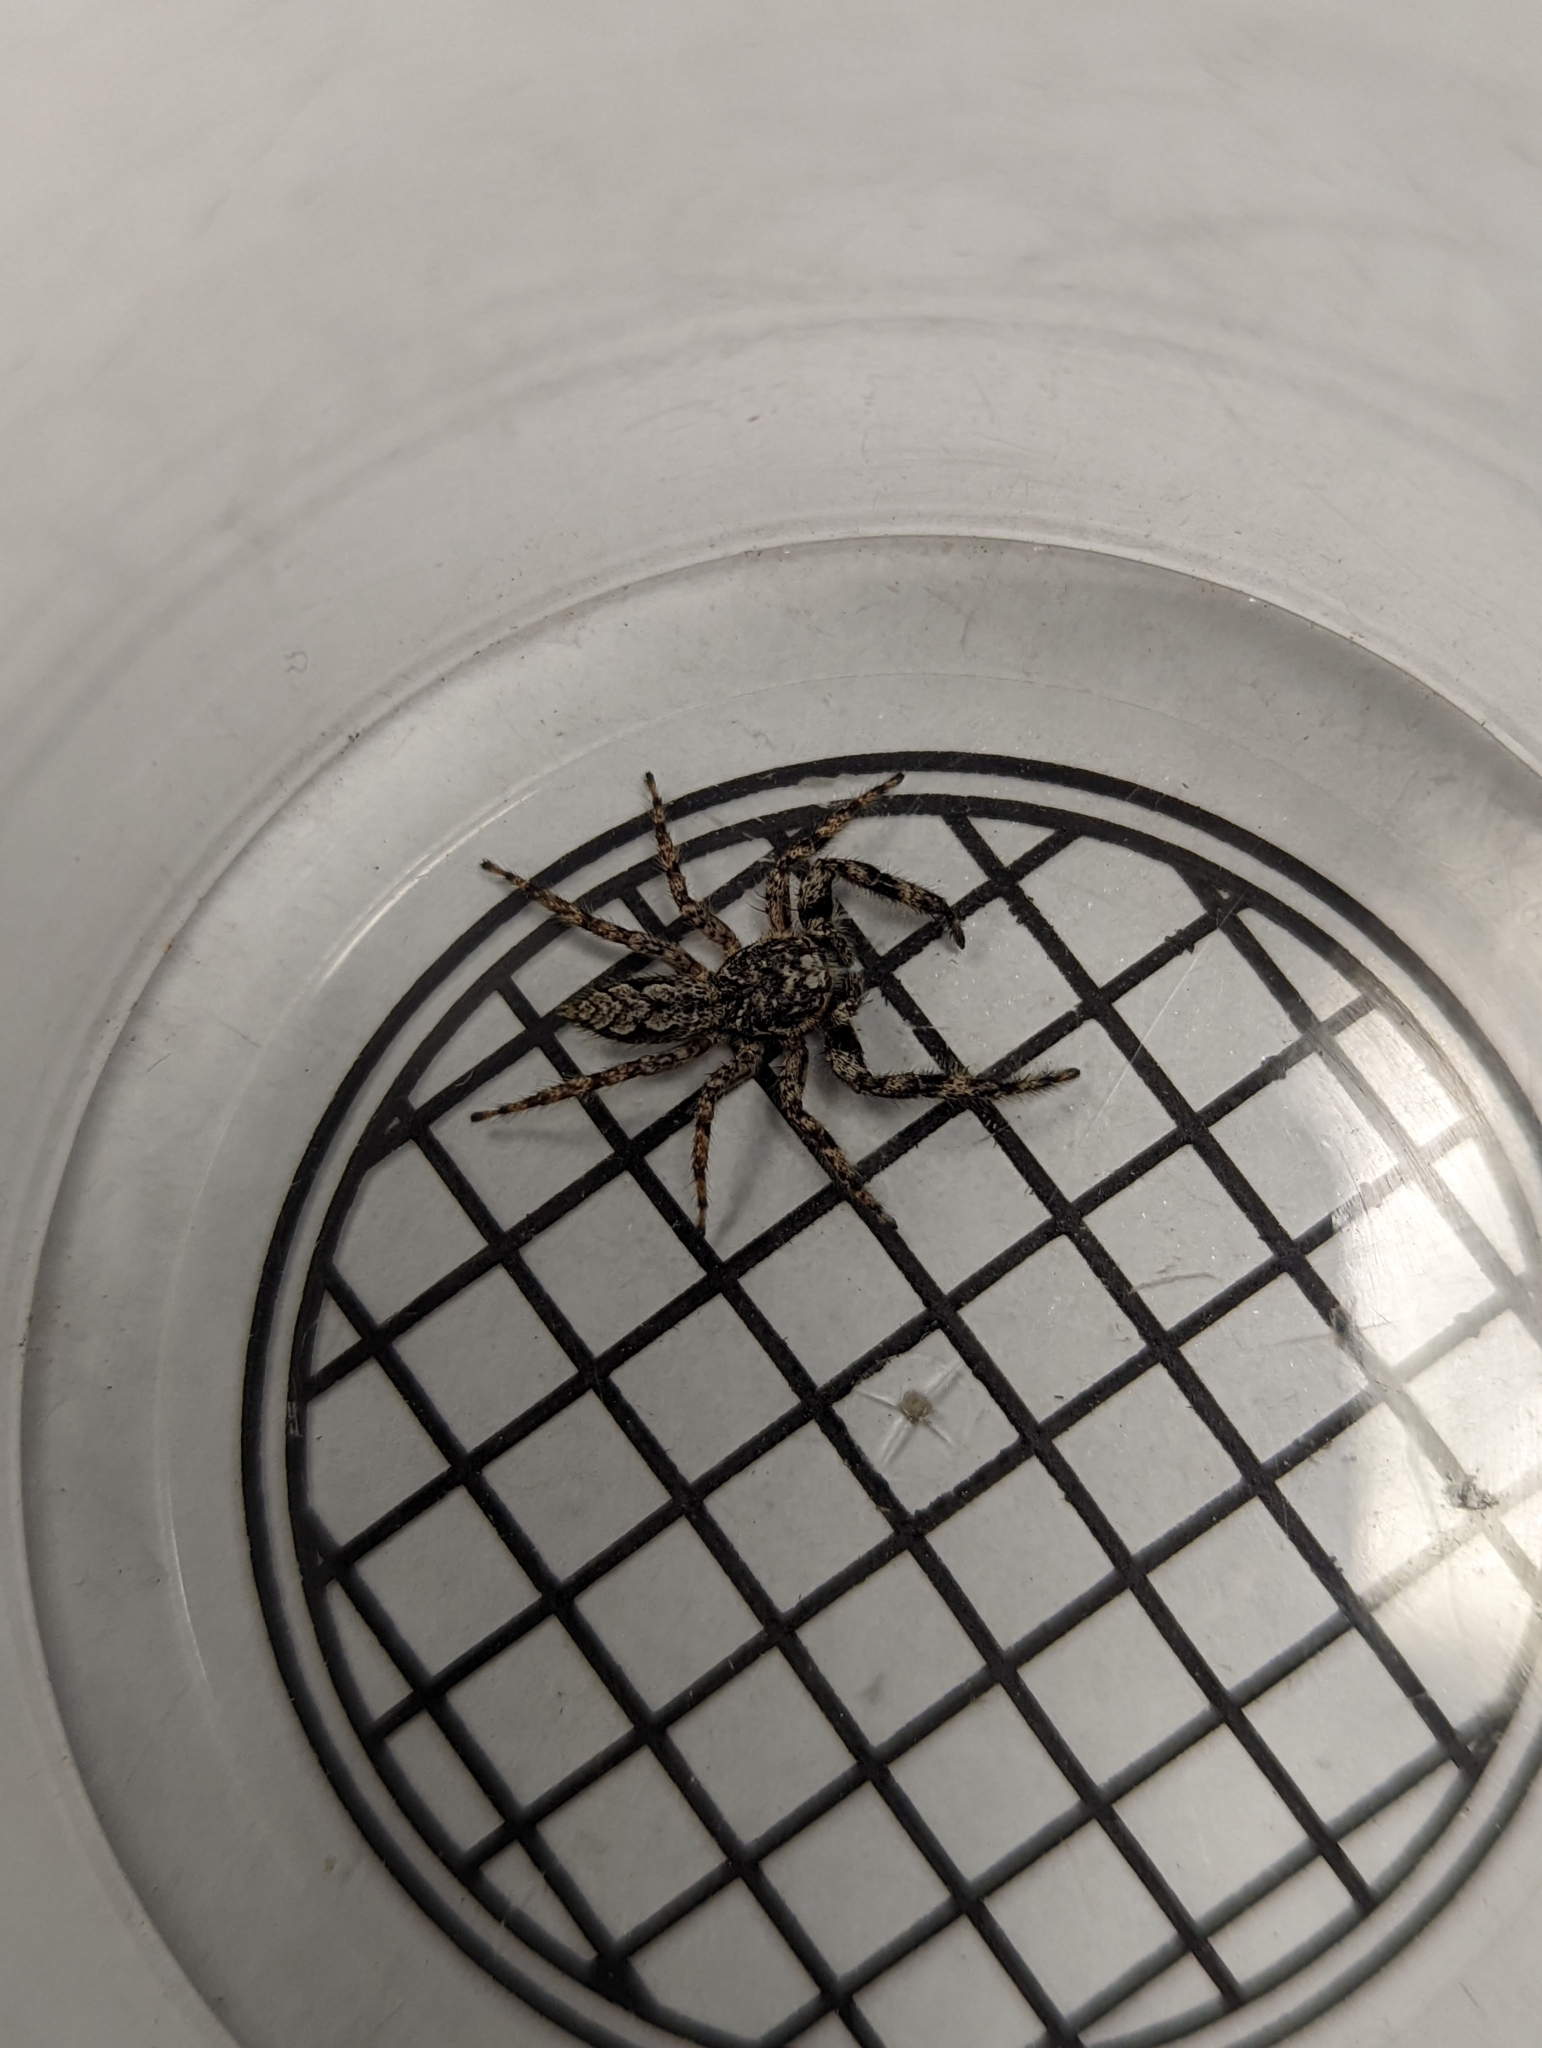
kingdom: Animalia
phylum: Arthropoda
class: Arachnida
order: Araneae
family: Salticidae
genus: Platycryptus
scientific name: Platycryptus undatus
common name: Tan jumping spider
